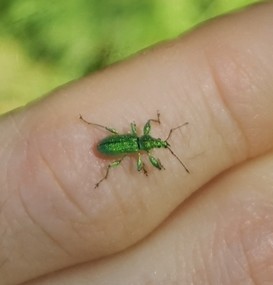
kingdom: Animalia
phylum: Arthropoda
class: Insecta
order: Coleoptera
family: Curculionidae
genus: Phyllobius
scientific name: Phyllobius arborator
